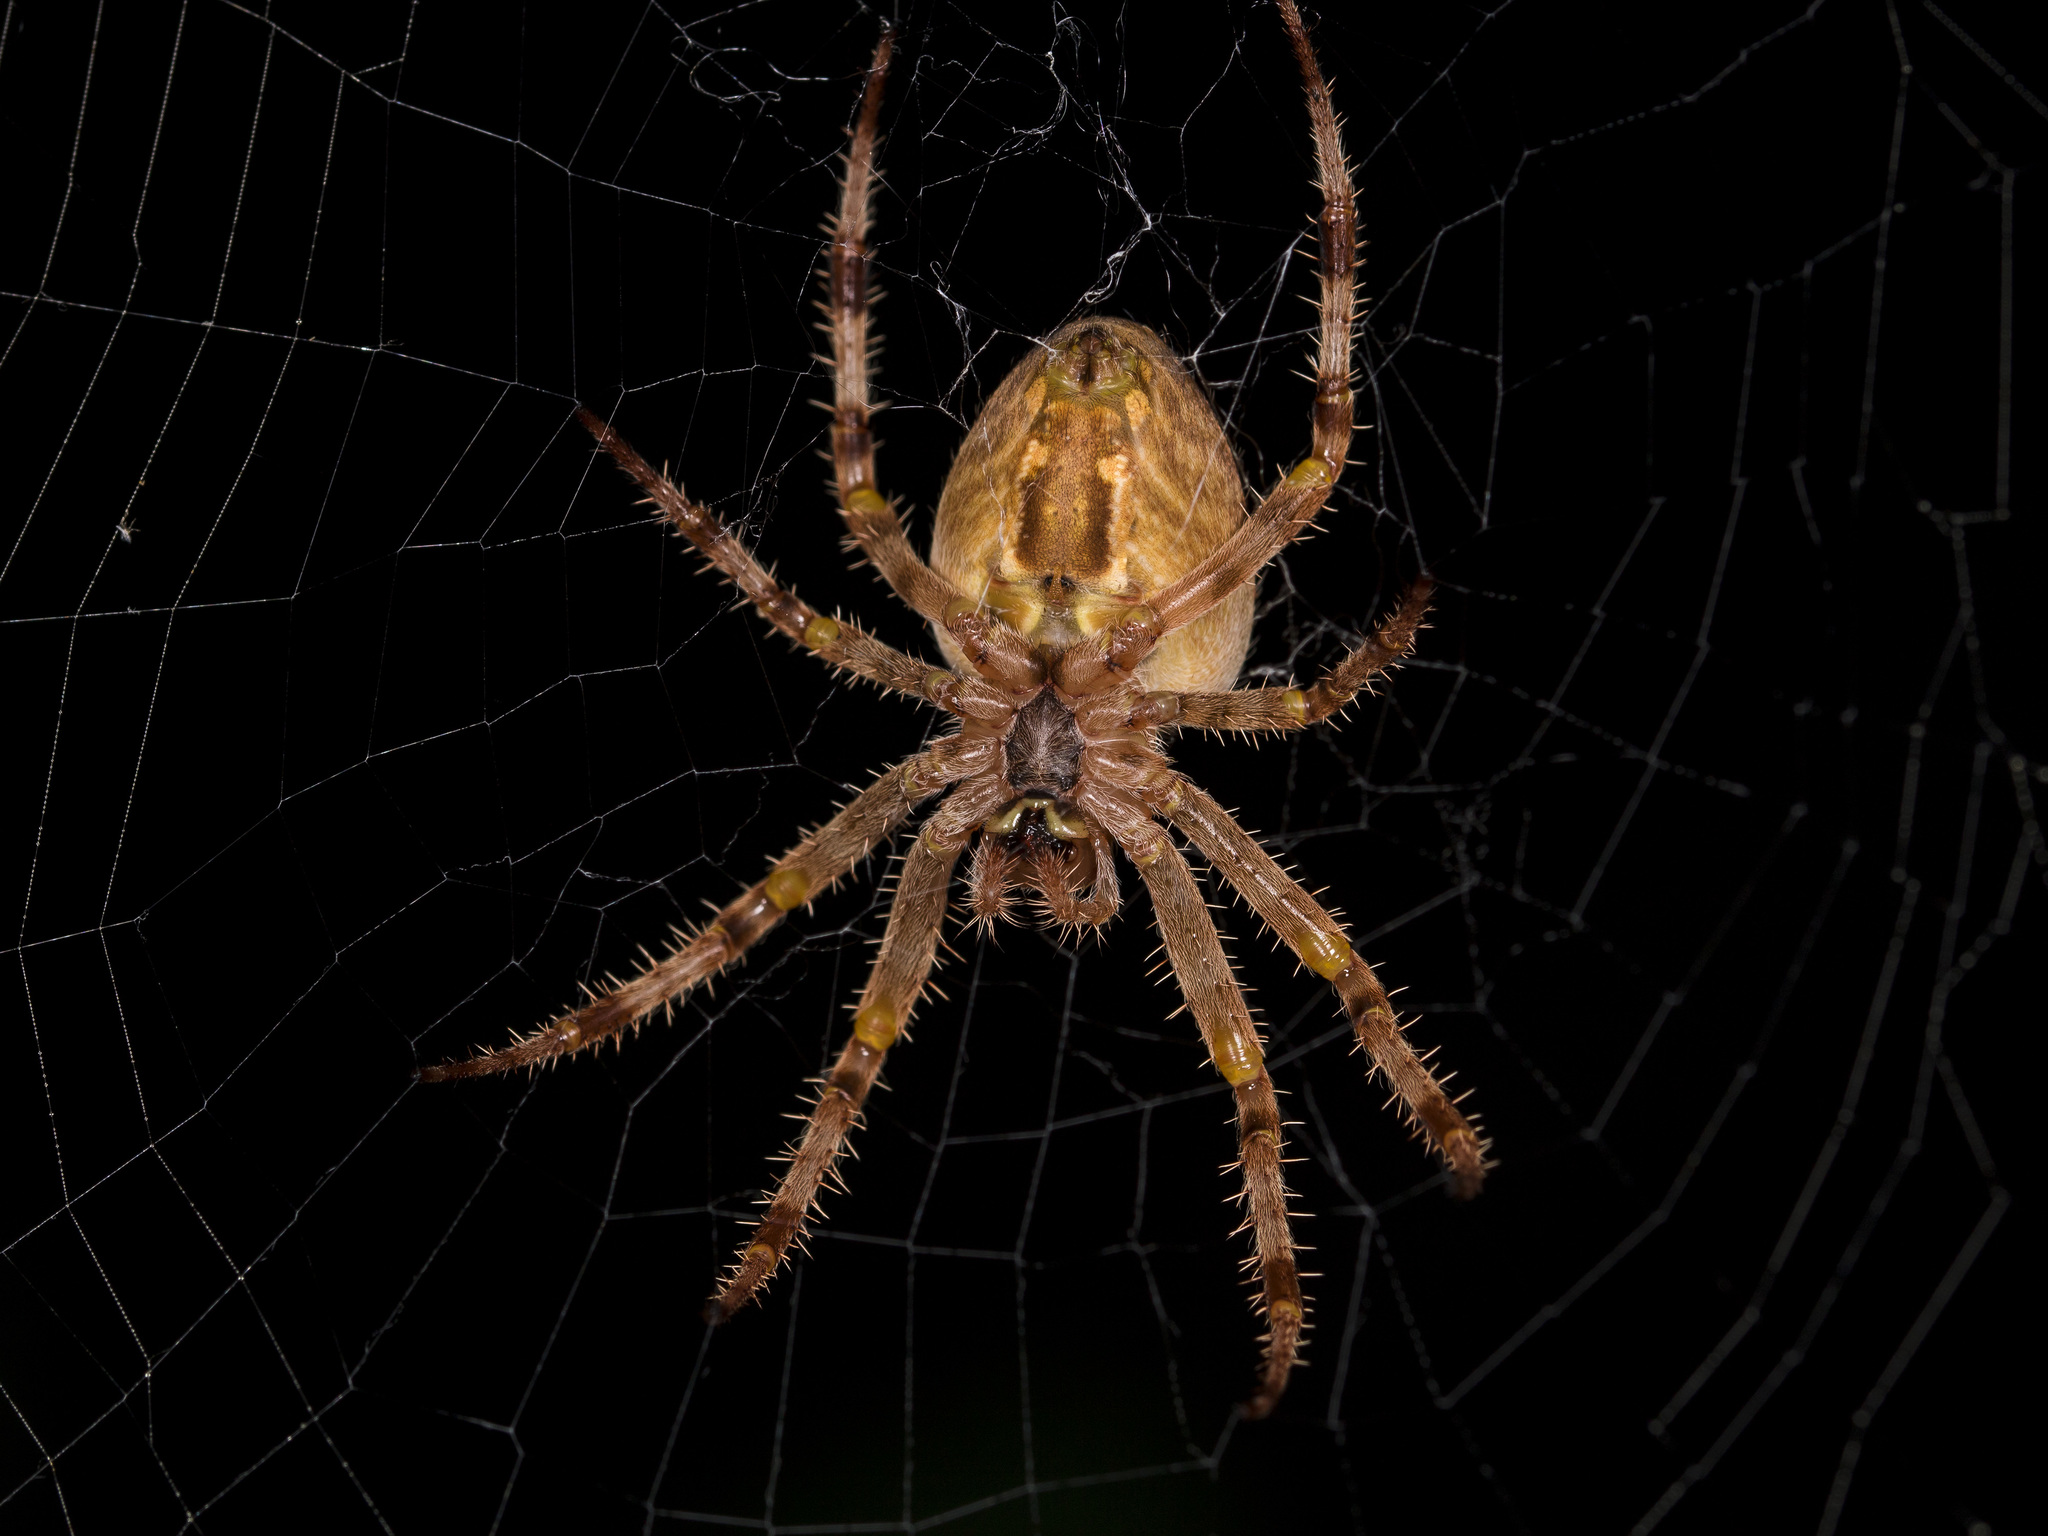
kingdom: Animalia
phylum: Arthropoda
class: Arachnida
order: Araneae
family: Araneidae
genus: Araneus
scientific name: Araneus diadematus
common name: Cross orbweaver
